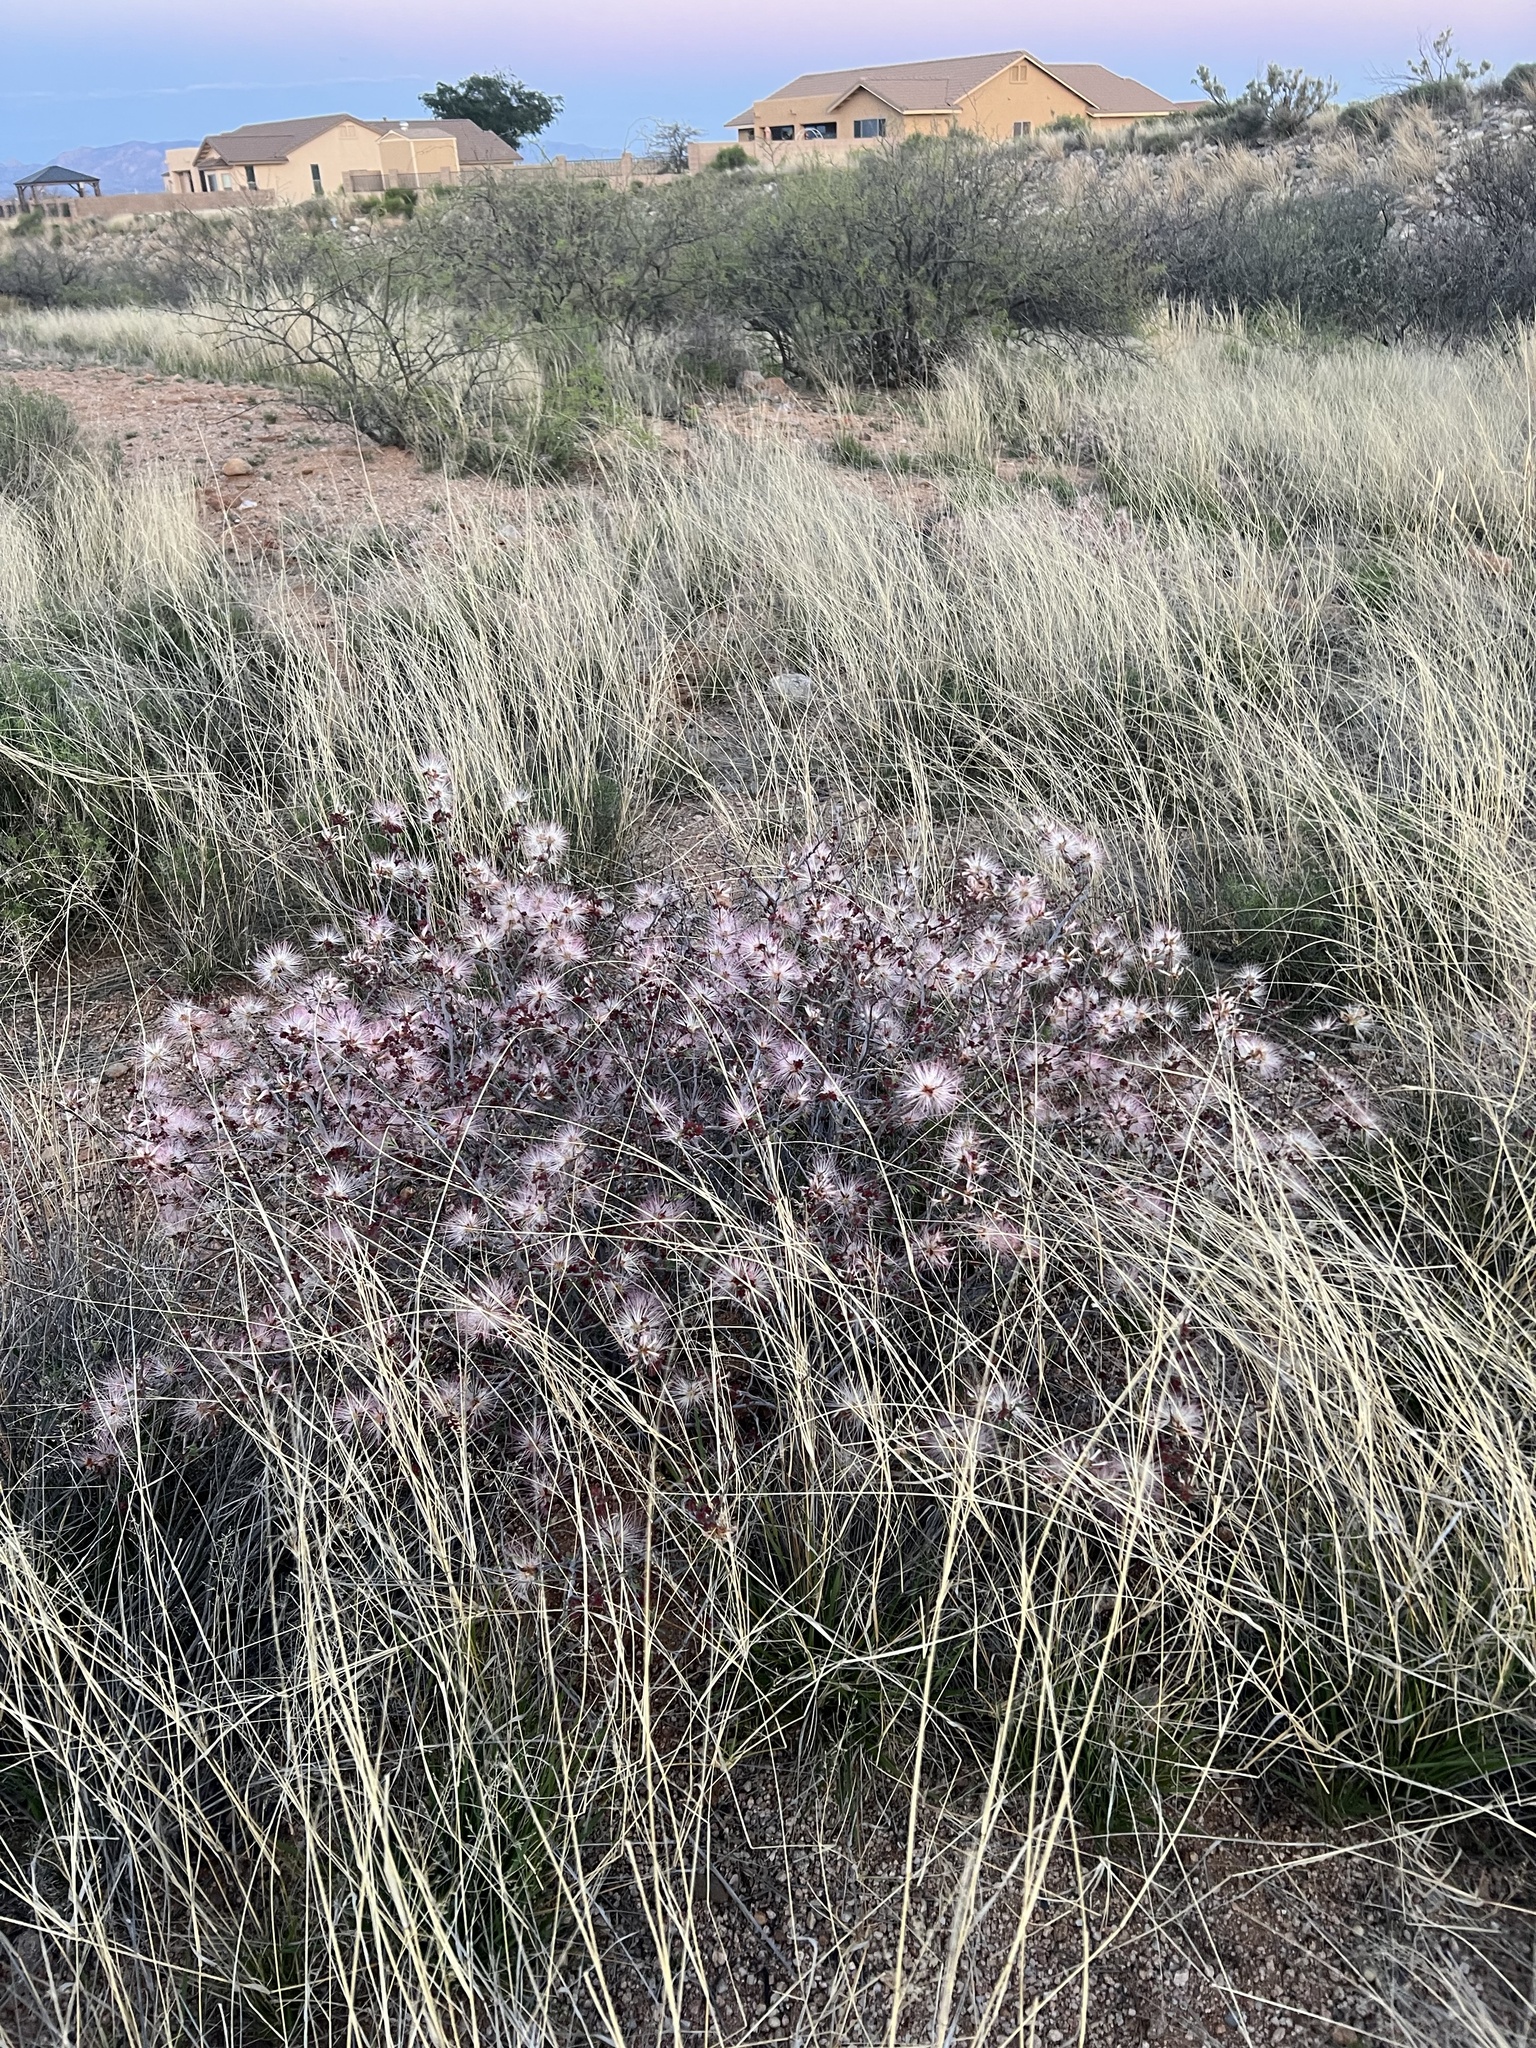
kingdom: Plantae
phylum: Tracheophyta
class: Magnoliopsida
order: Fabales
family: Fabaceae
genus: Calliandra
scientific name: Calliandra eriophylla
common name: Fairy-duster
